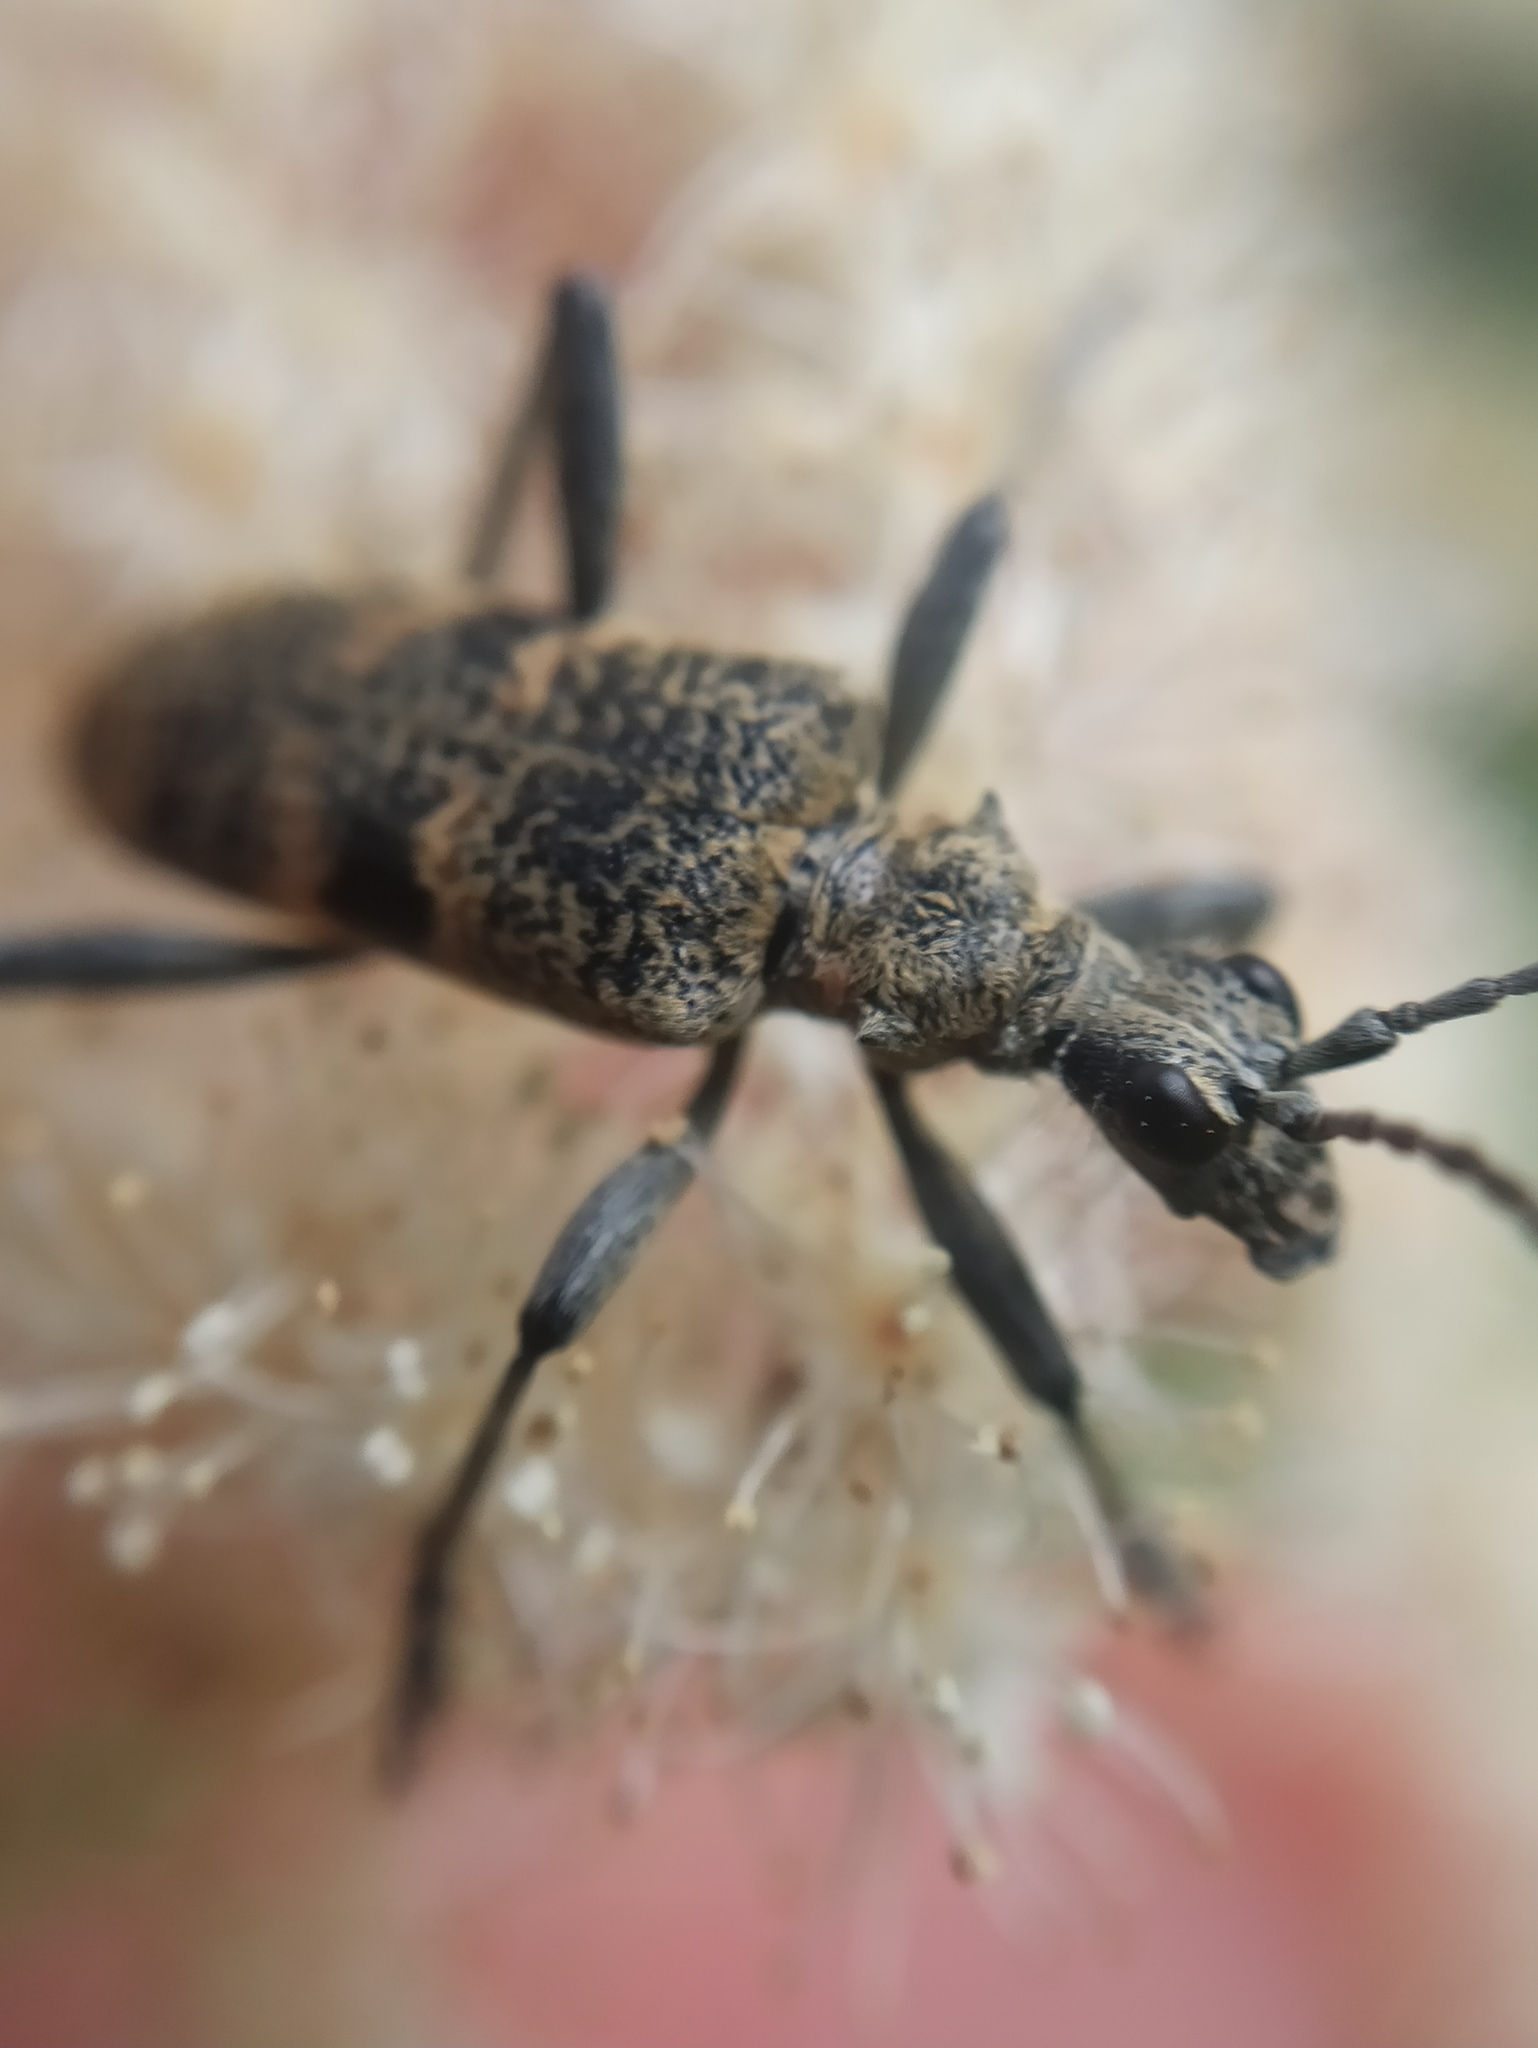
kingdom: Animalia
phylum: Arthropoda
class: Insecta
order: Coleoptera
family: Cerambycidae
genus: Rhagium
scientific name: Rhagium mordax
